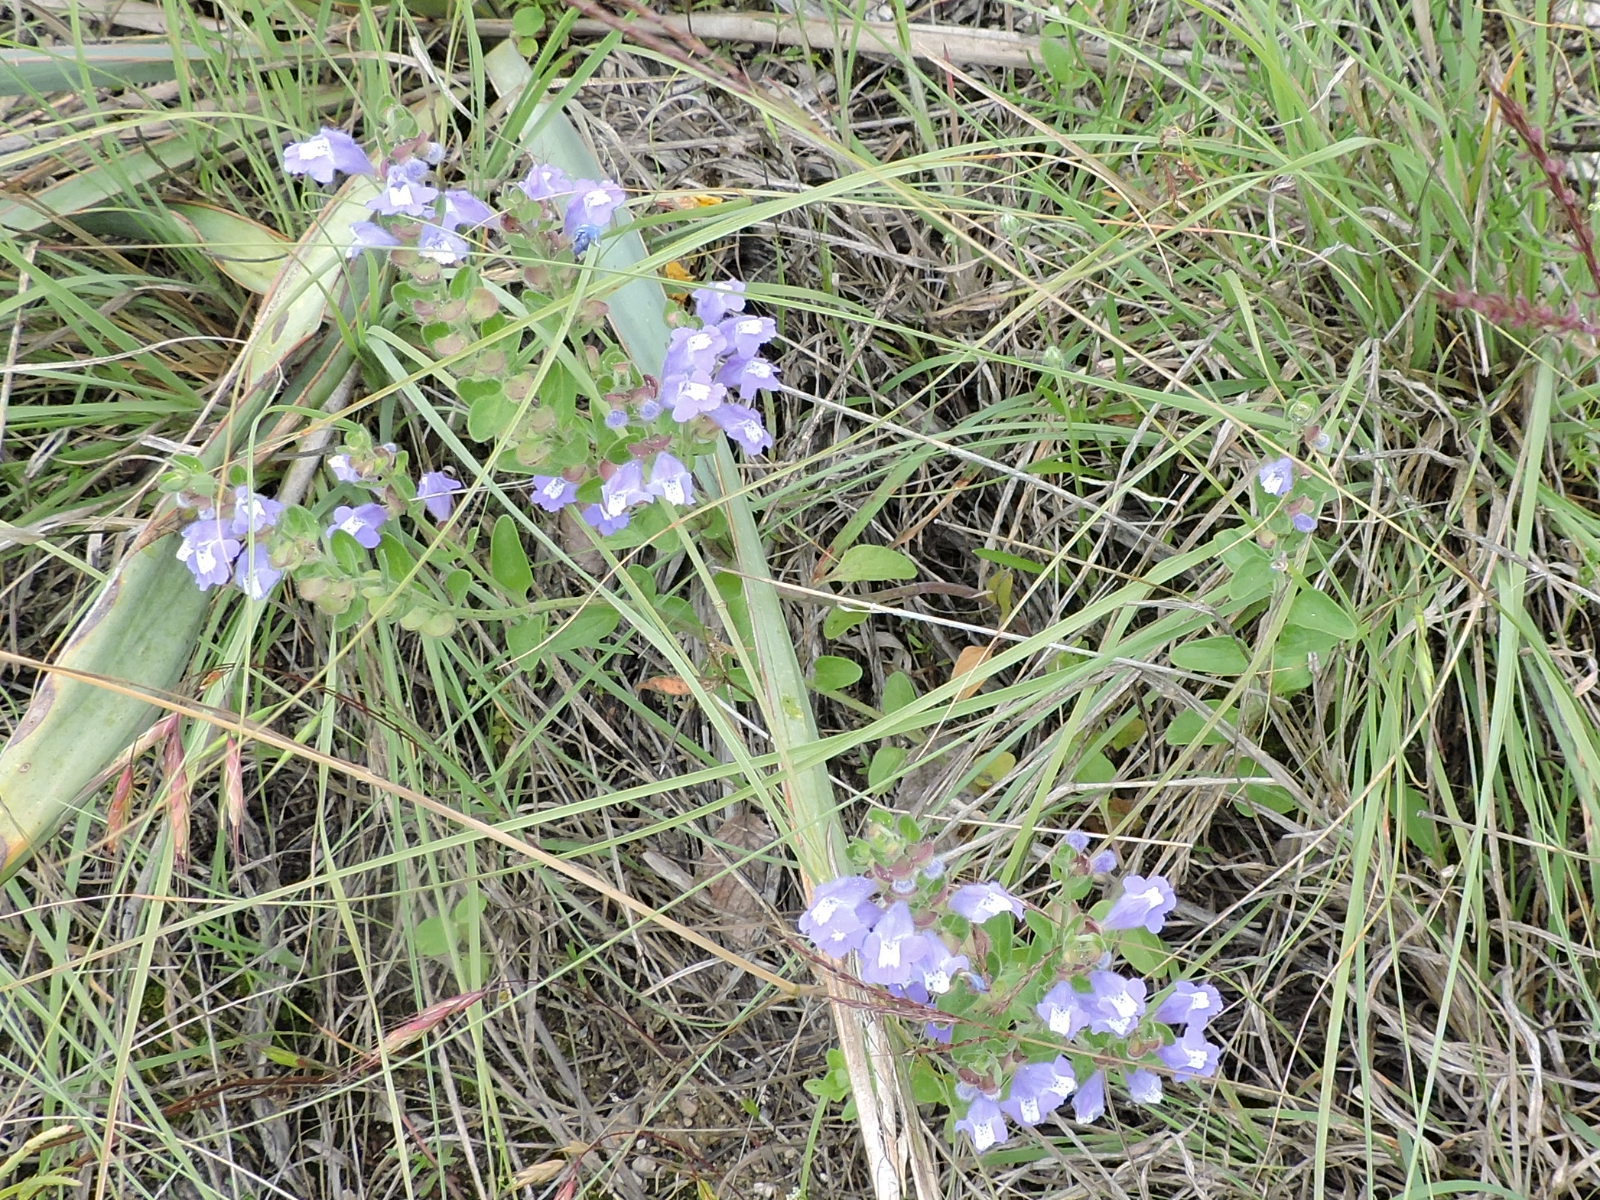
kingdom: Plantae
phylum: Tracheophyta
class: Magnoliopsida
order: Lamiales
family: Lamiaceae
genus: Scutellaria
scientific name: Scutellaria drummondii
